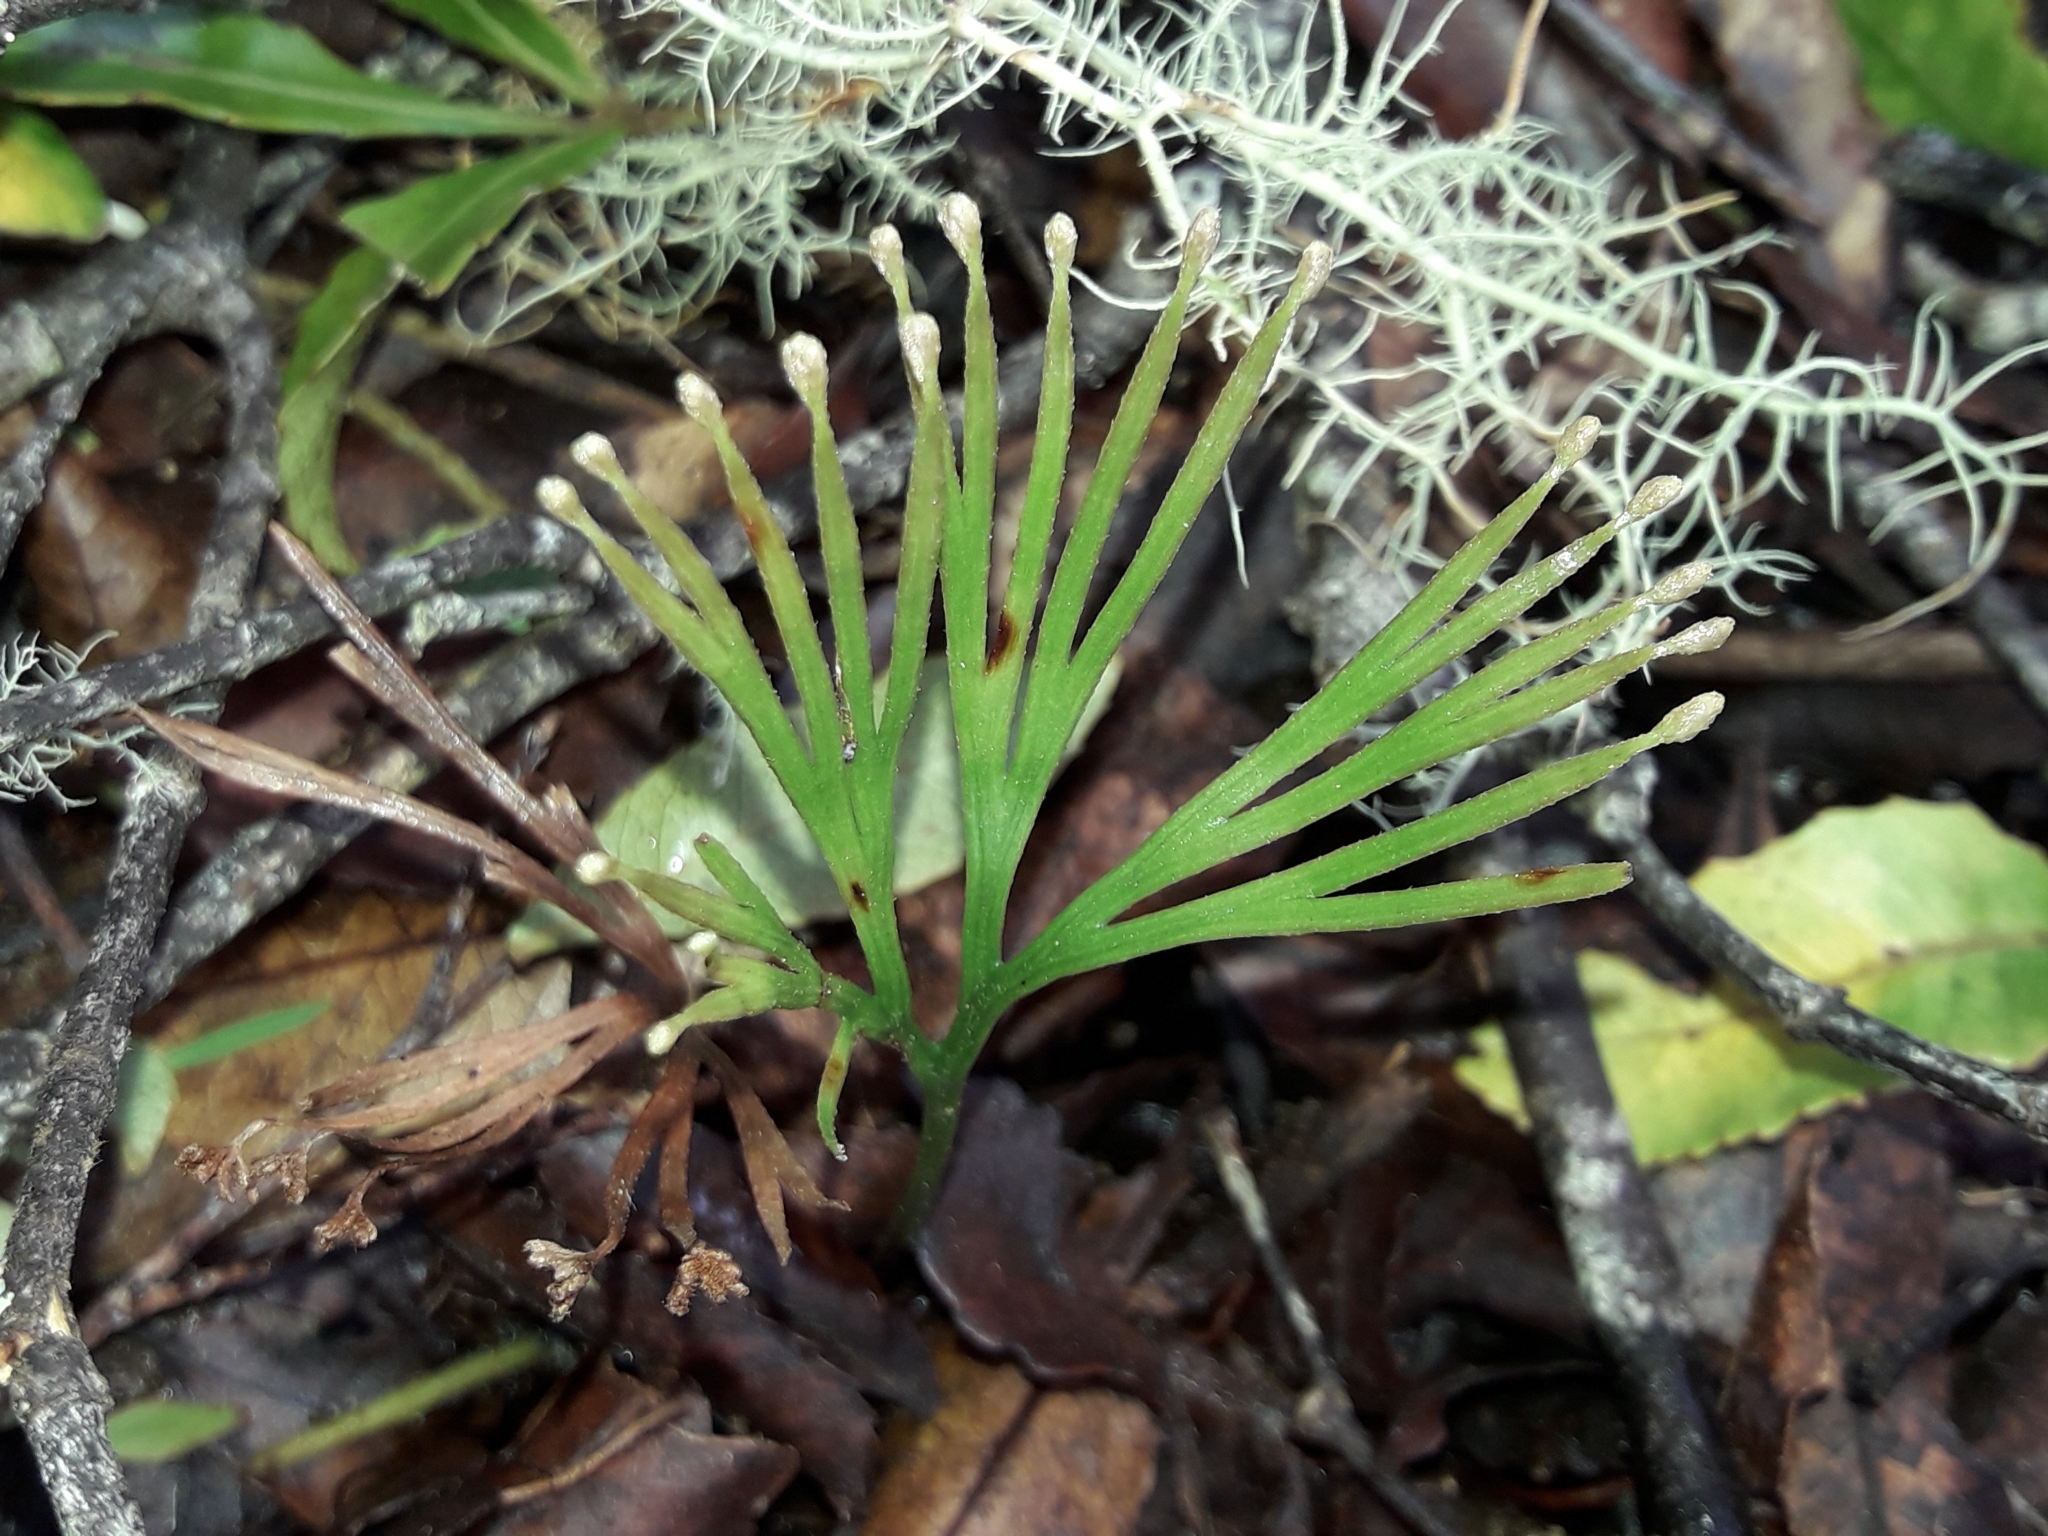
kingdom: Plantae
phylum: Tracheophyta
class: Polypodiopsida
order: Schizaeales
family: Schizaeaceae
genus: Schizaea
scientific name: Schizaea dichotoma
